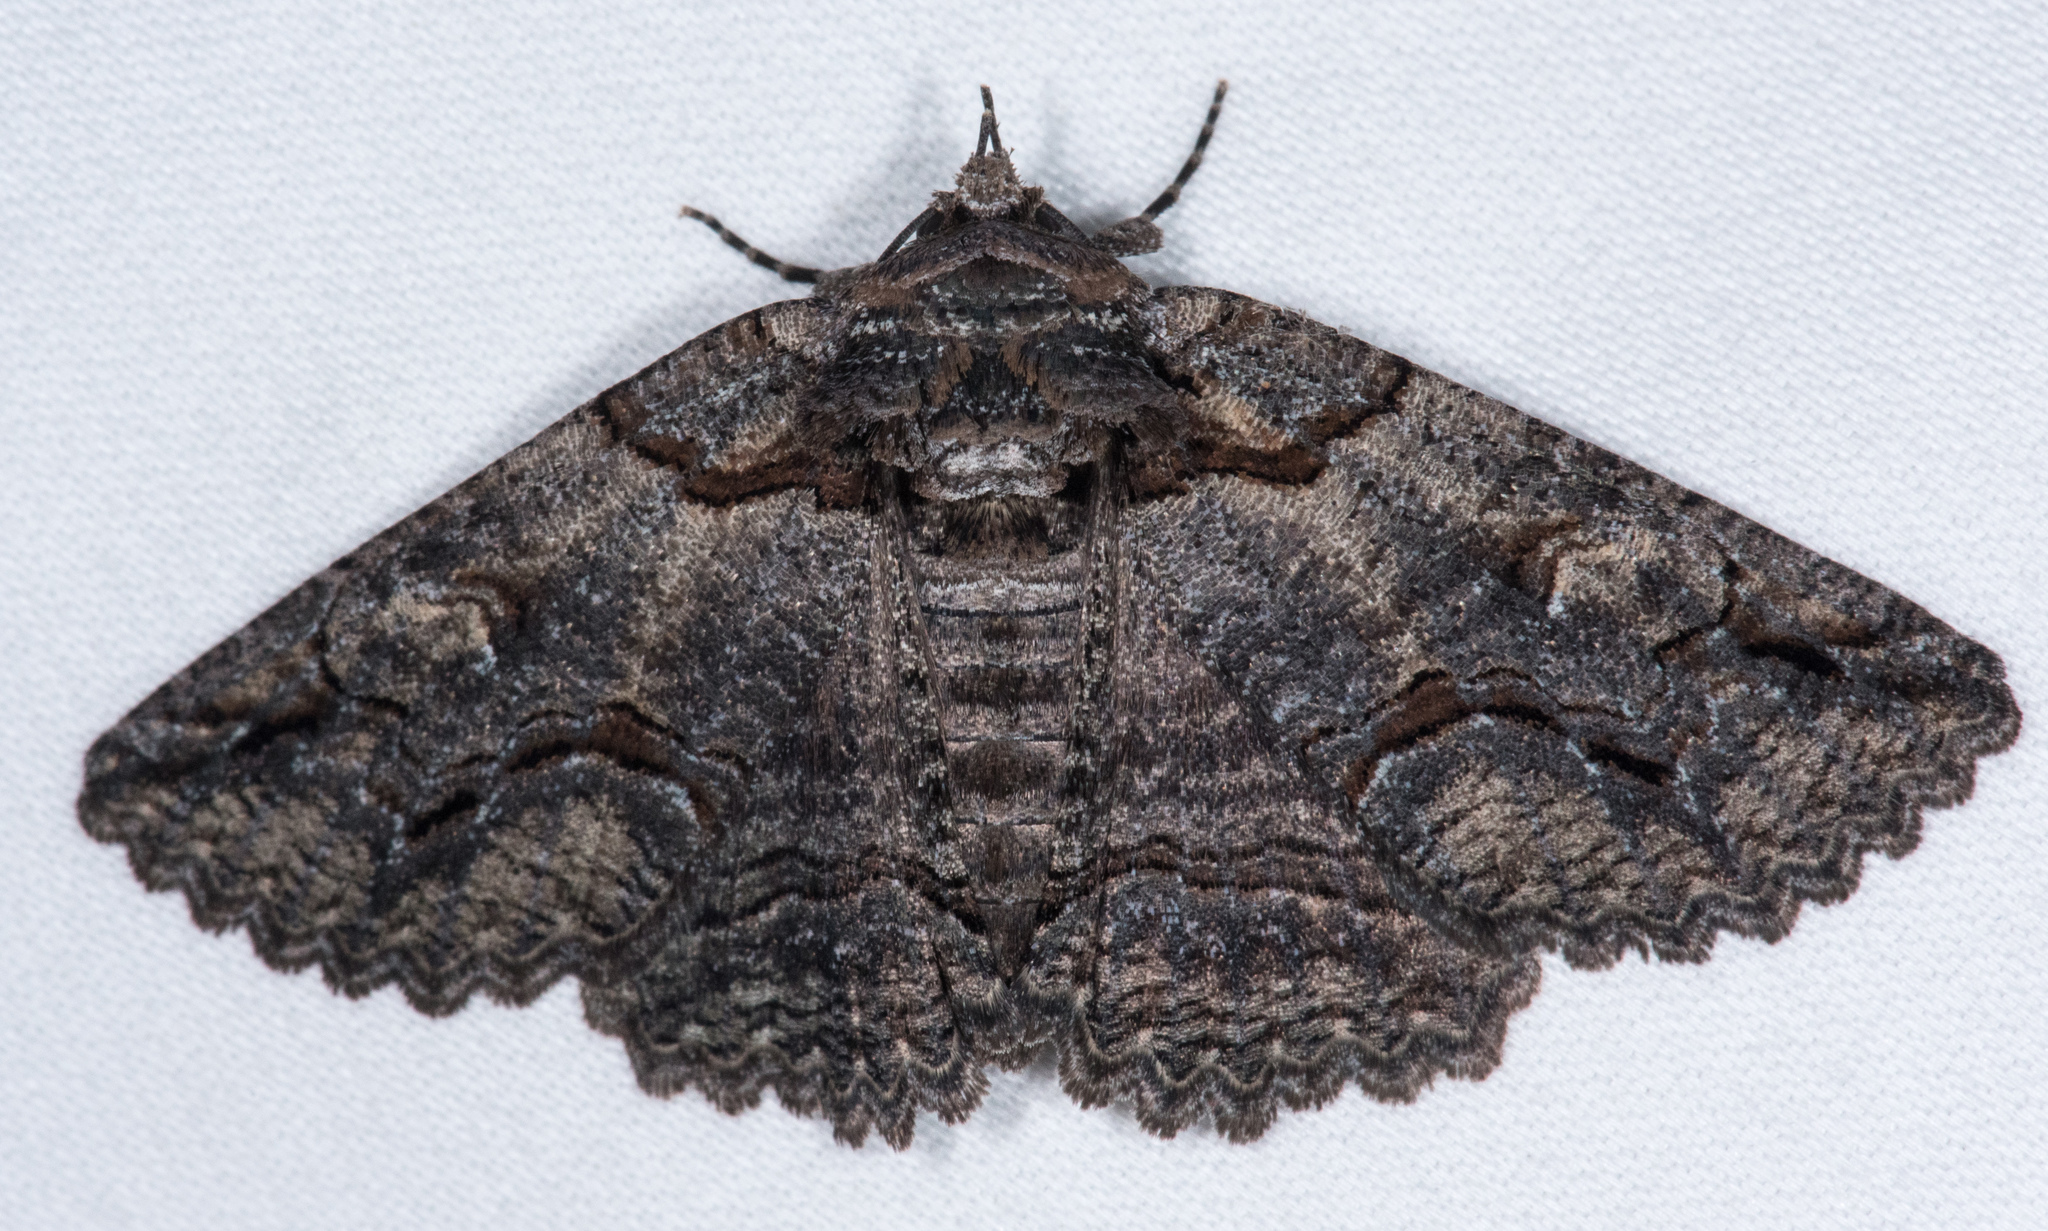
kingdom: Animalia
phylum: Arthropoda
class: Insecta
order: Lepidoptera
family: Erebidae
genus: Zale
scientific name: Zale termina
